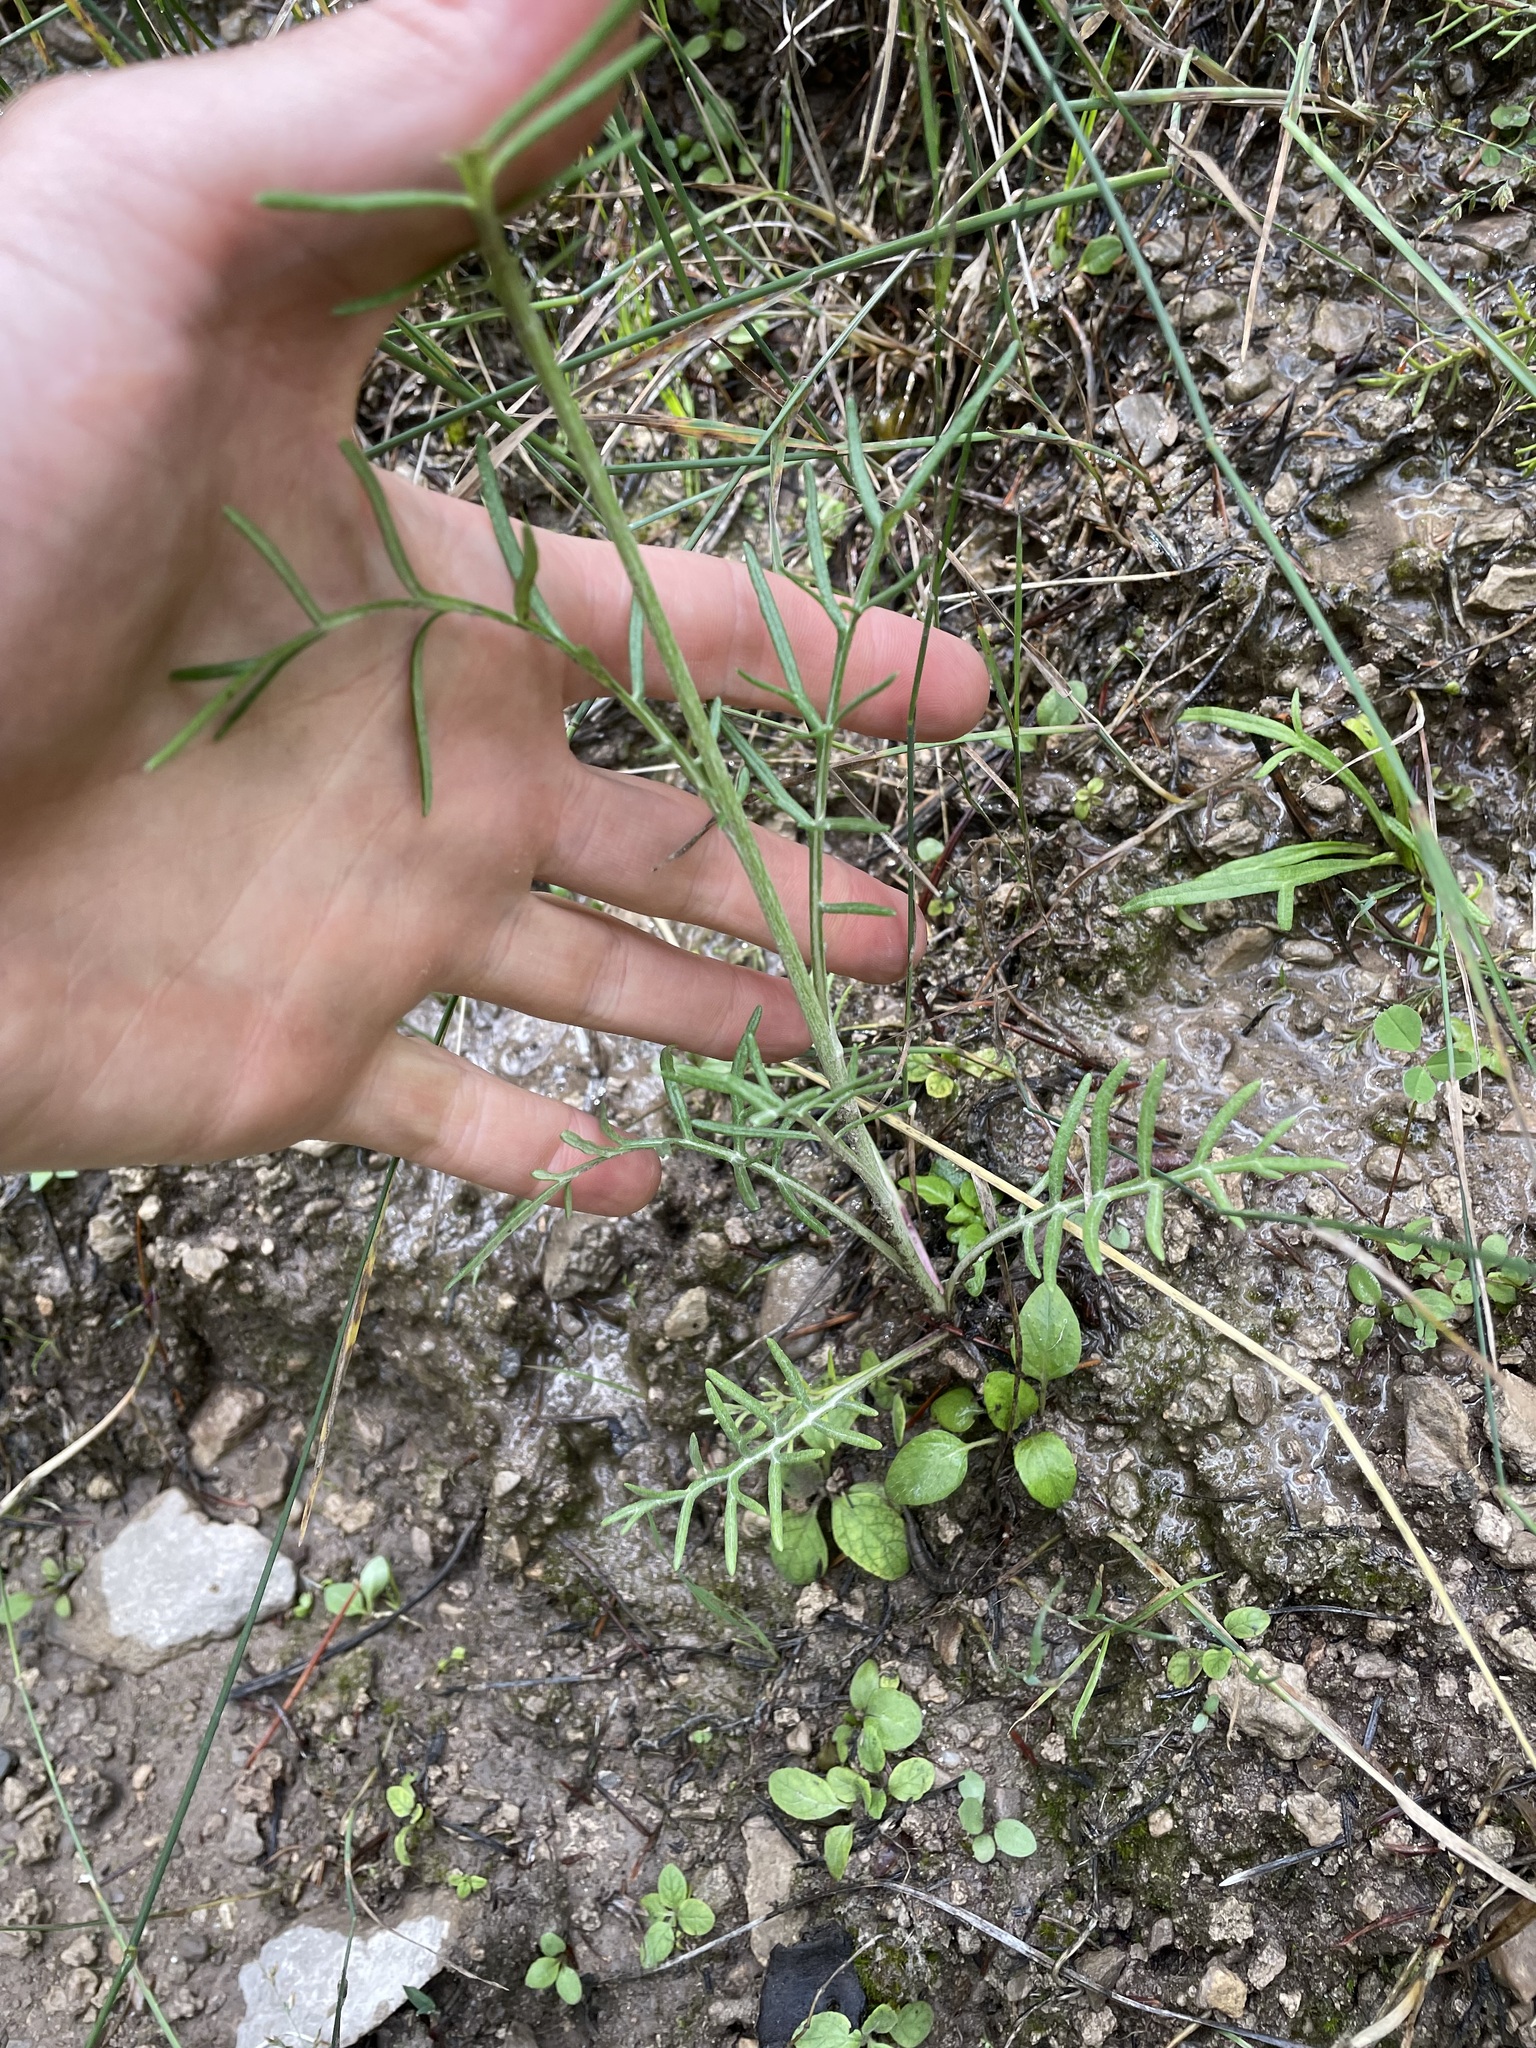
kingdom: Plantae
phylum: Tracheophyta
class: Magnoliopsida
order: Asterales
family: Asteraceae
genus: Melampodium
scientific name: Melampodium leucanthum
